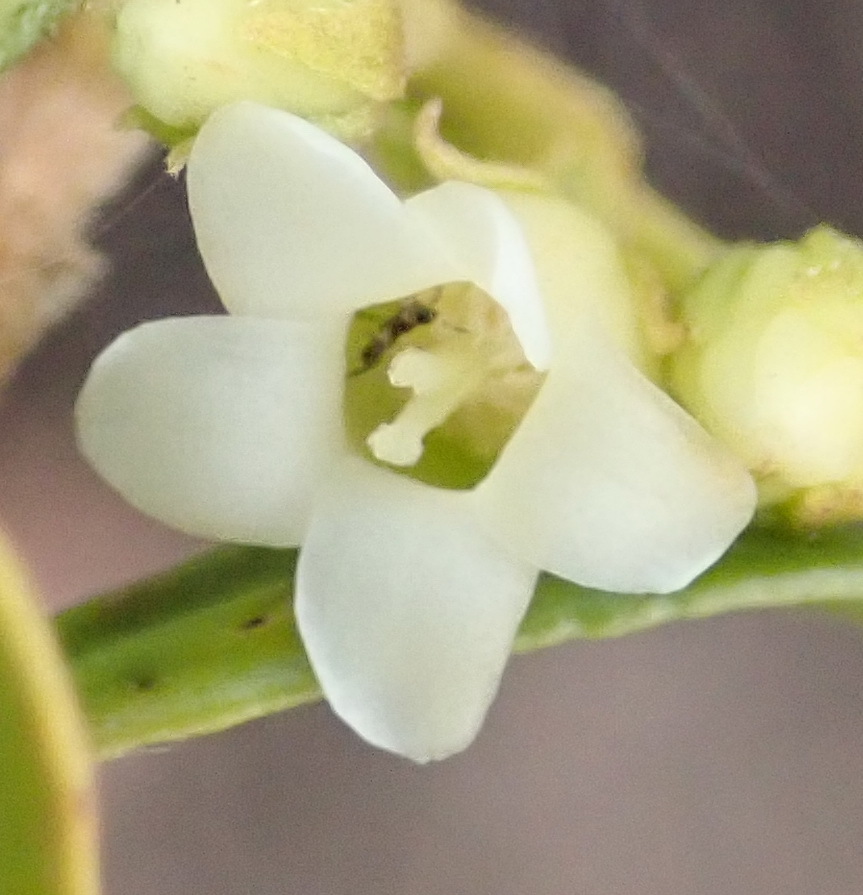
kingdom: Plantae
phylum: Tracheophyta
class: Magnoliopsida
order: Ericales
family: Ebenaceae
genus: Diospyros
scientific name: Diospyros glabra
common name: Fynbos star apple
